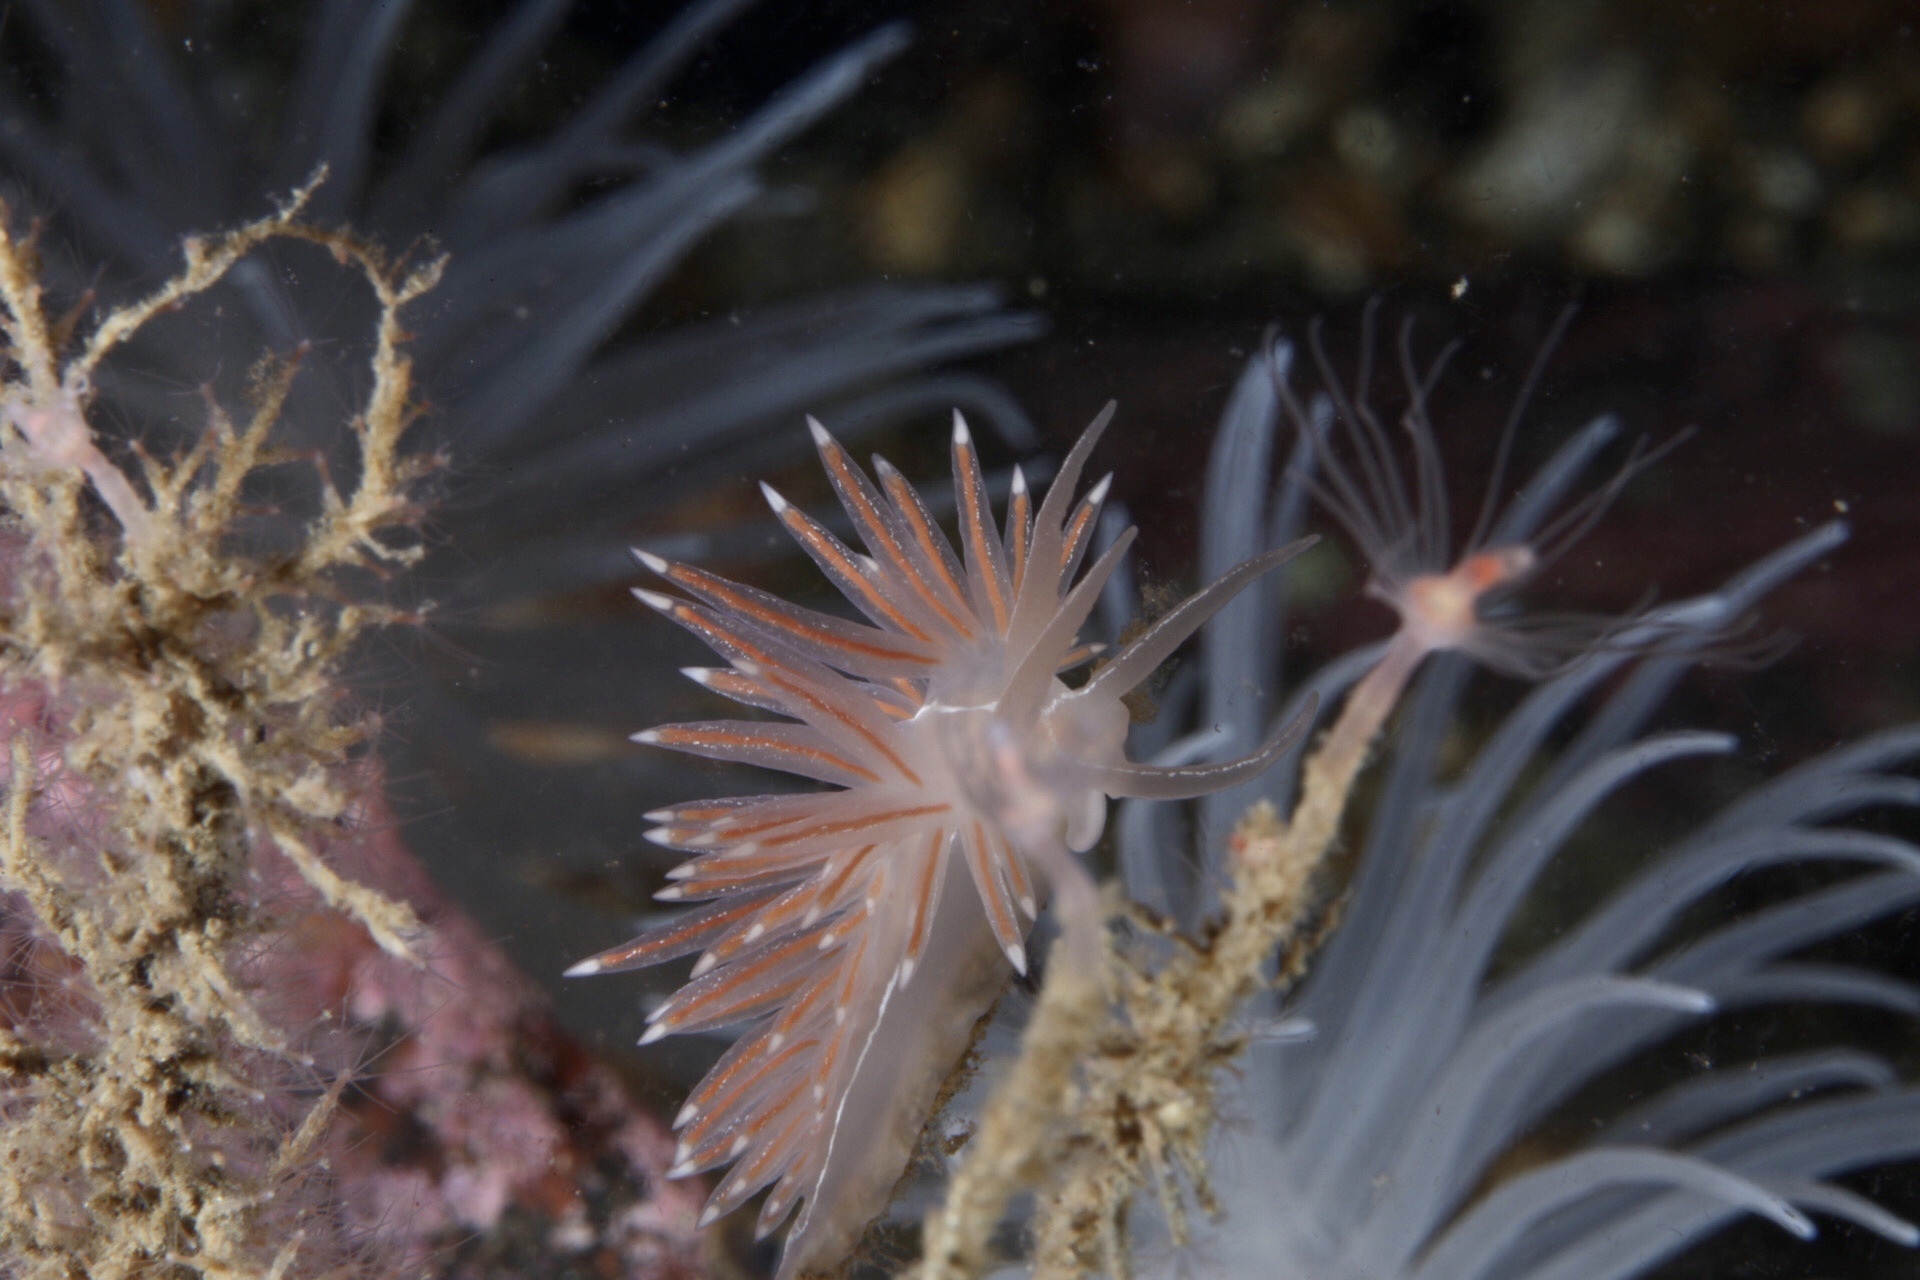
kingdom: Animalia
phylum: Mollusca
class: Gastropoda
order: Nudibranchia
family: Coryphellidae
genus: Coryphella
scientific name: Coryphella chriskaugei
